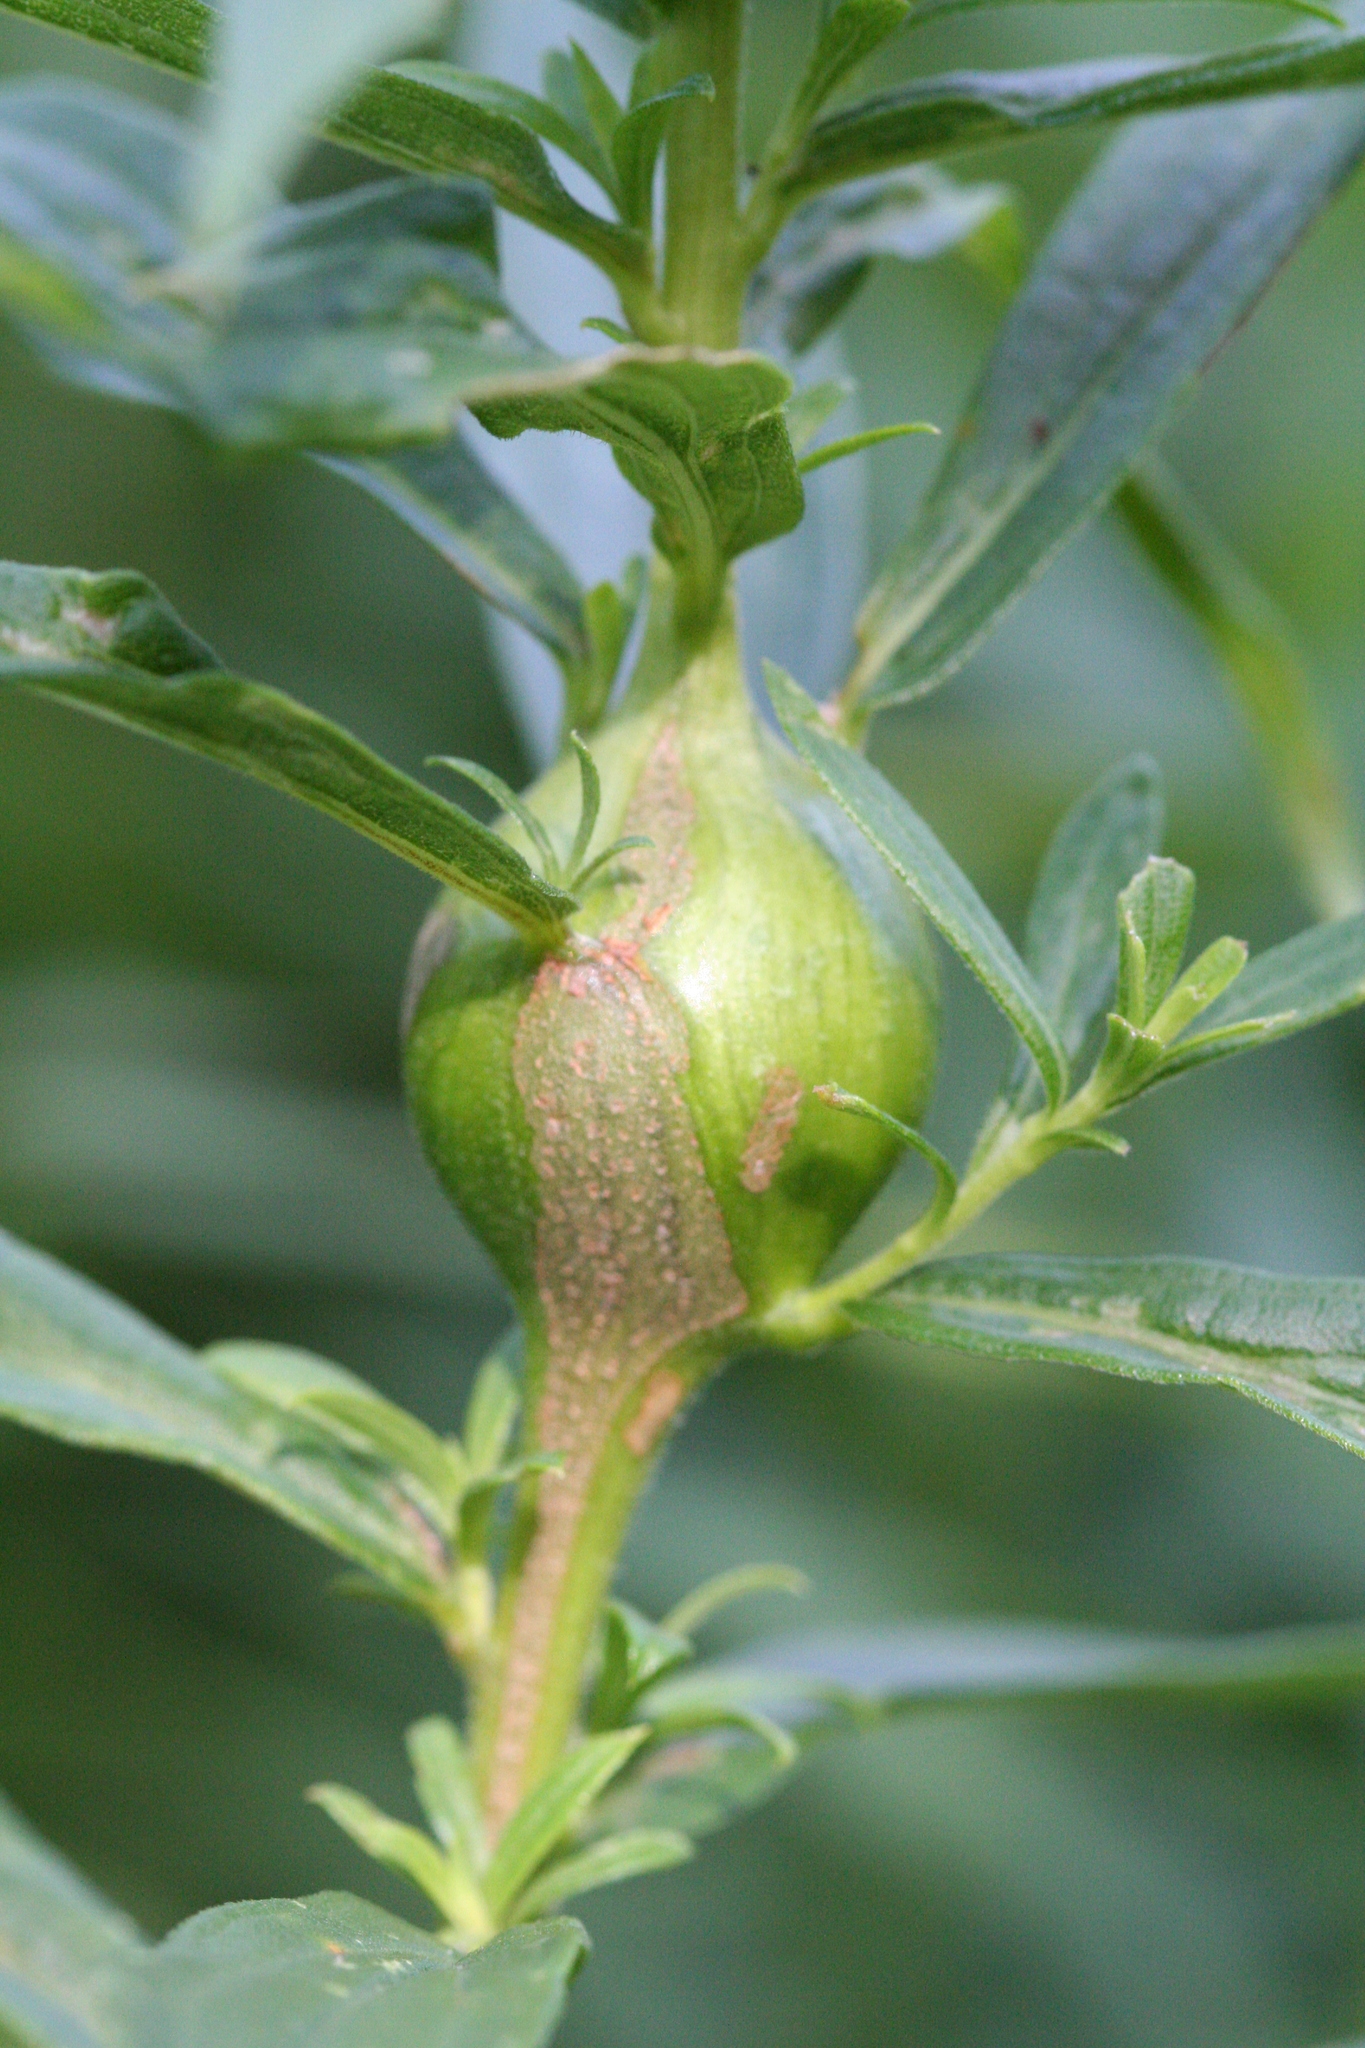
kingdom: Animalia
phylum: Arthropoda
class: Insecta
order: Diptera
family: Tephritidae
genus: Eurosta
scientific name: Eurosta solidaginis
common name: Goldenrod gall fly
